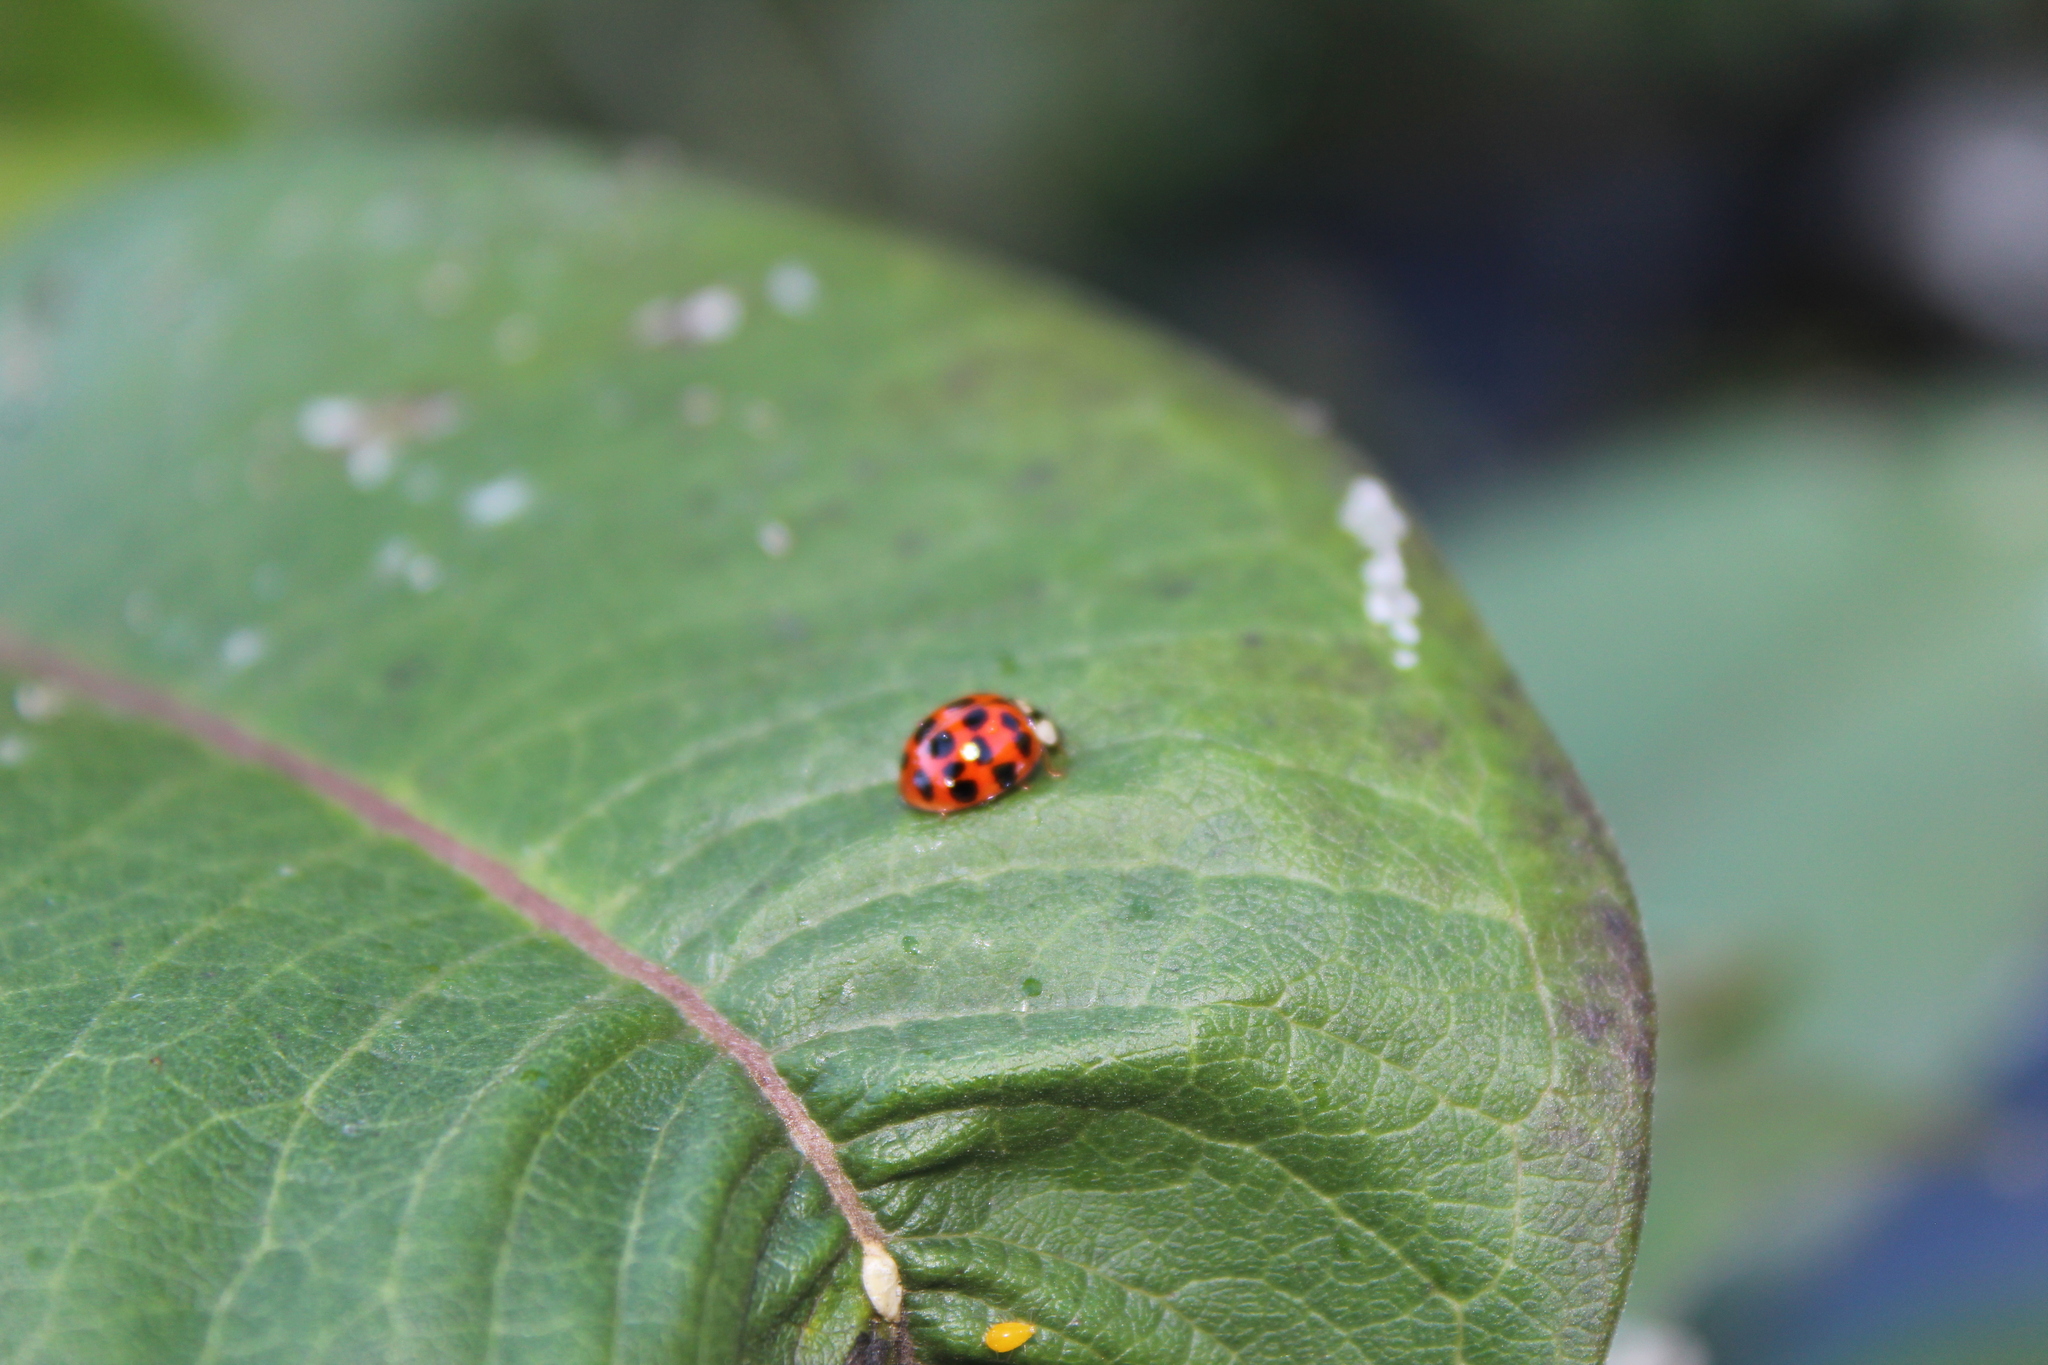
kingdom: Animalia
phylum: Arthropoda
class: Insecta
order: Coleoptera
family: Coccinellidae
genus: Harmonia
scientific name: Harmonia axyridis
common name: Harlequin ladybird
